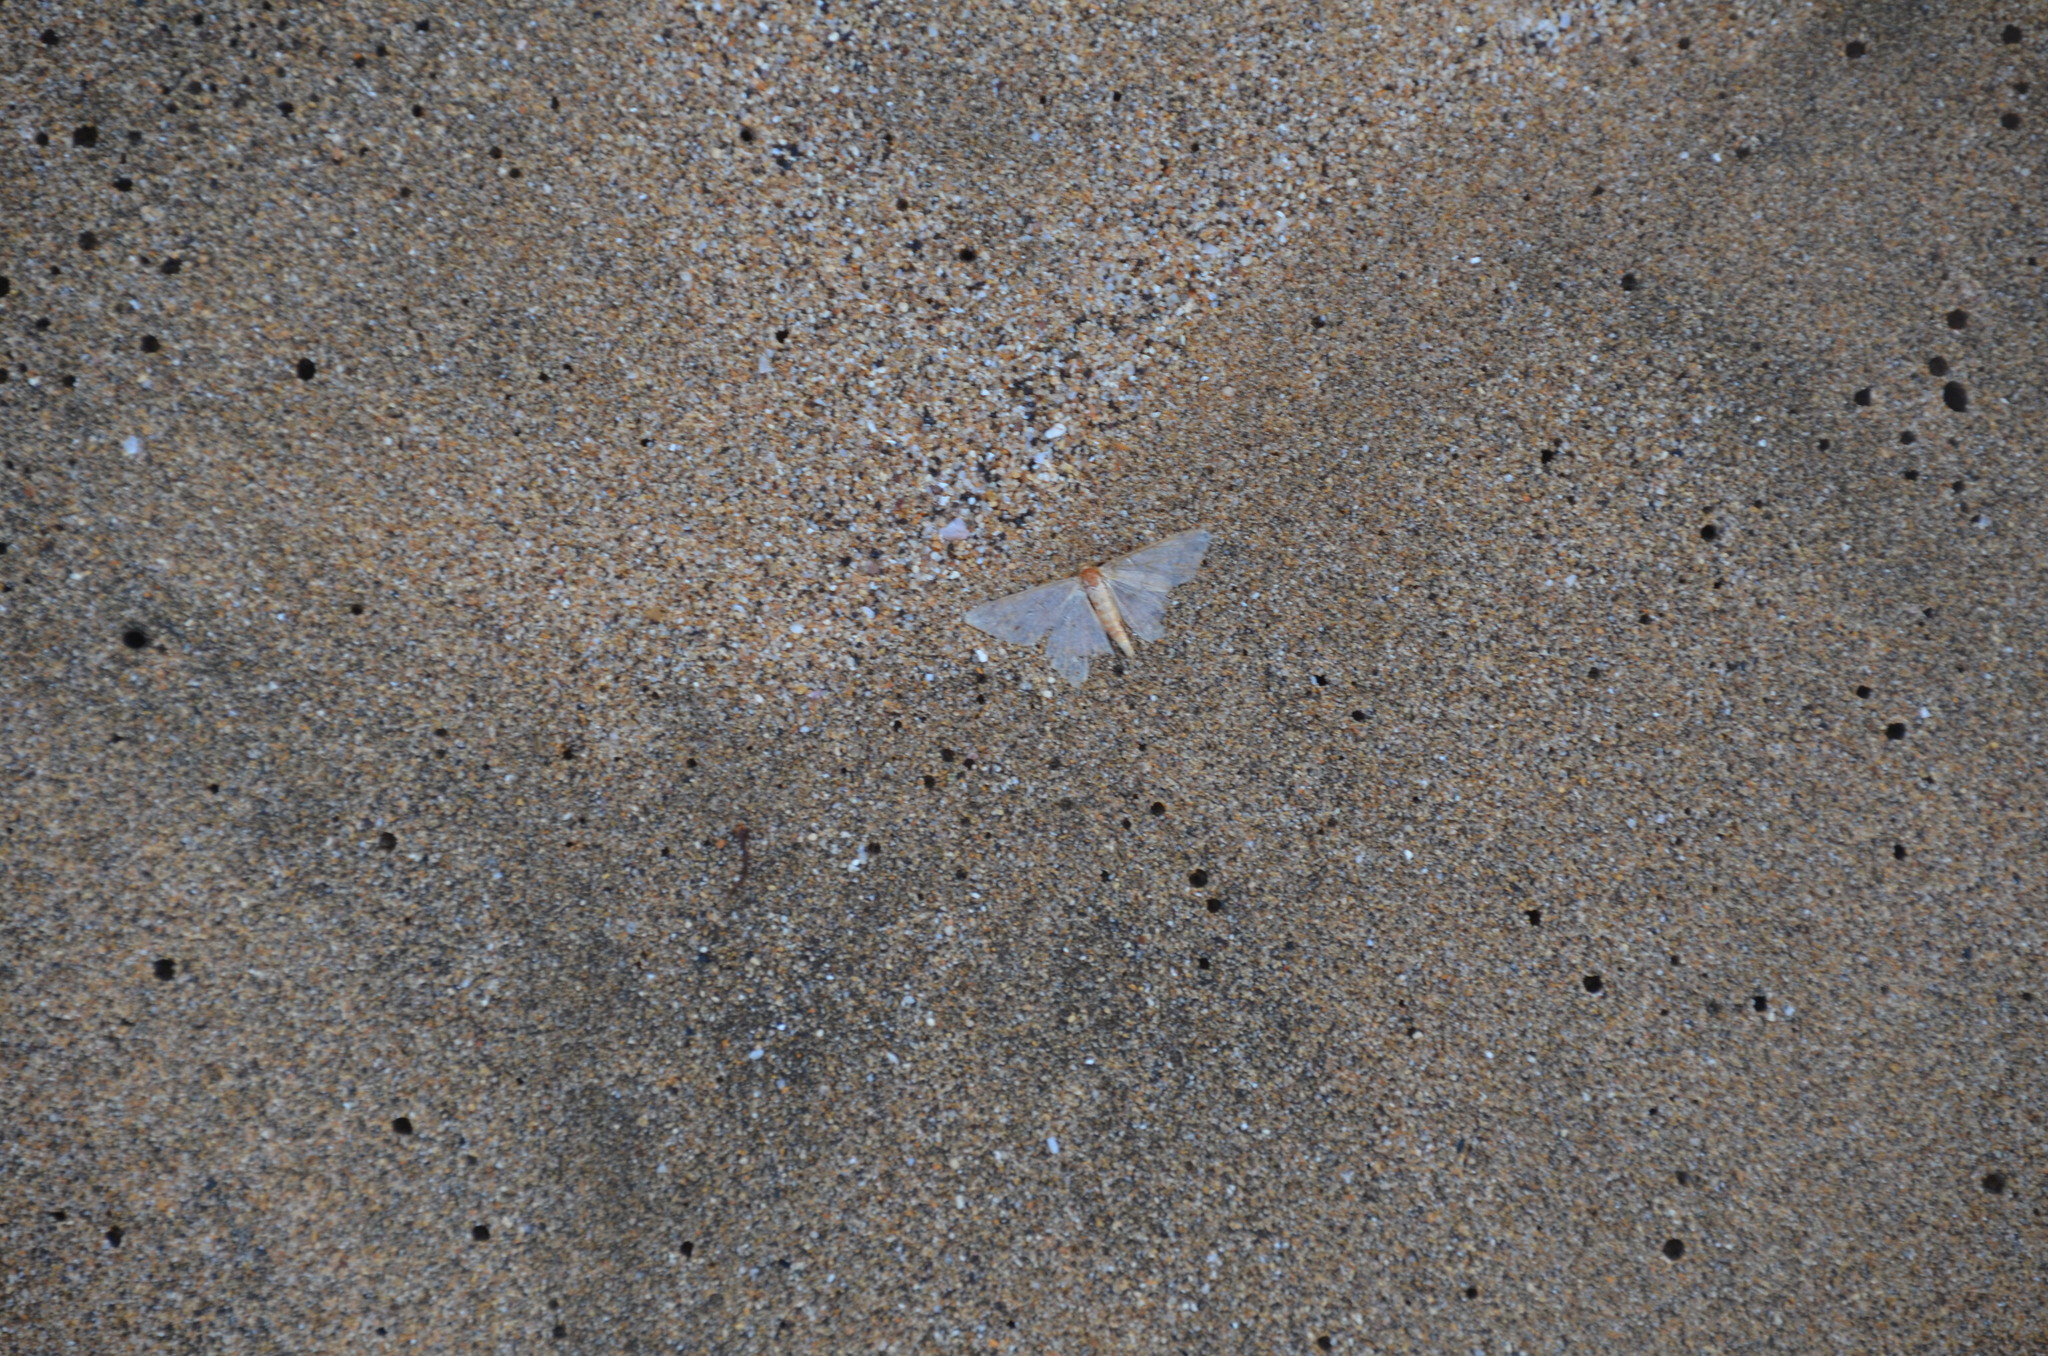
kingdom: Animalia
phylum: Arthropoda
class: Insecta
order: Lepidoptera
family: Geometridae
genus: Macaria
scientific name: Macaria abydata
